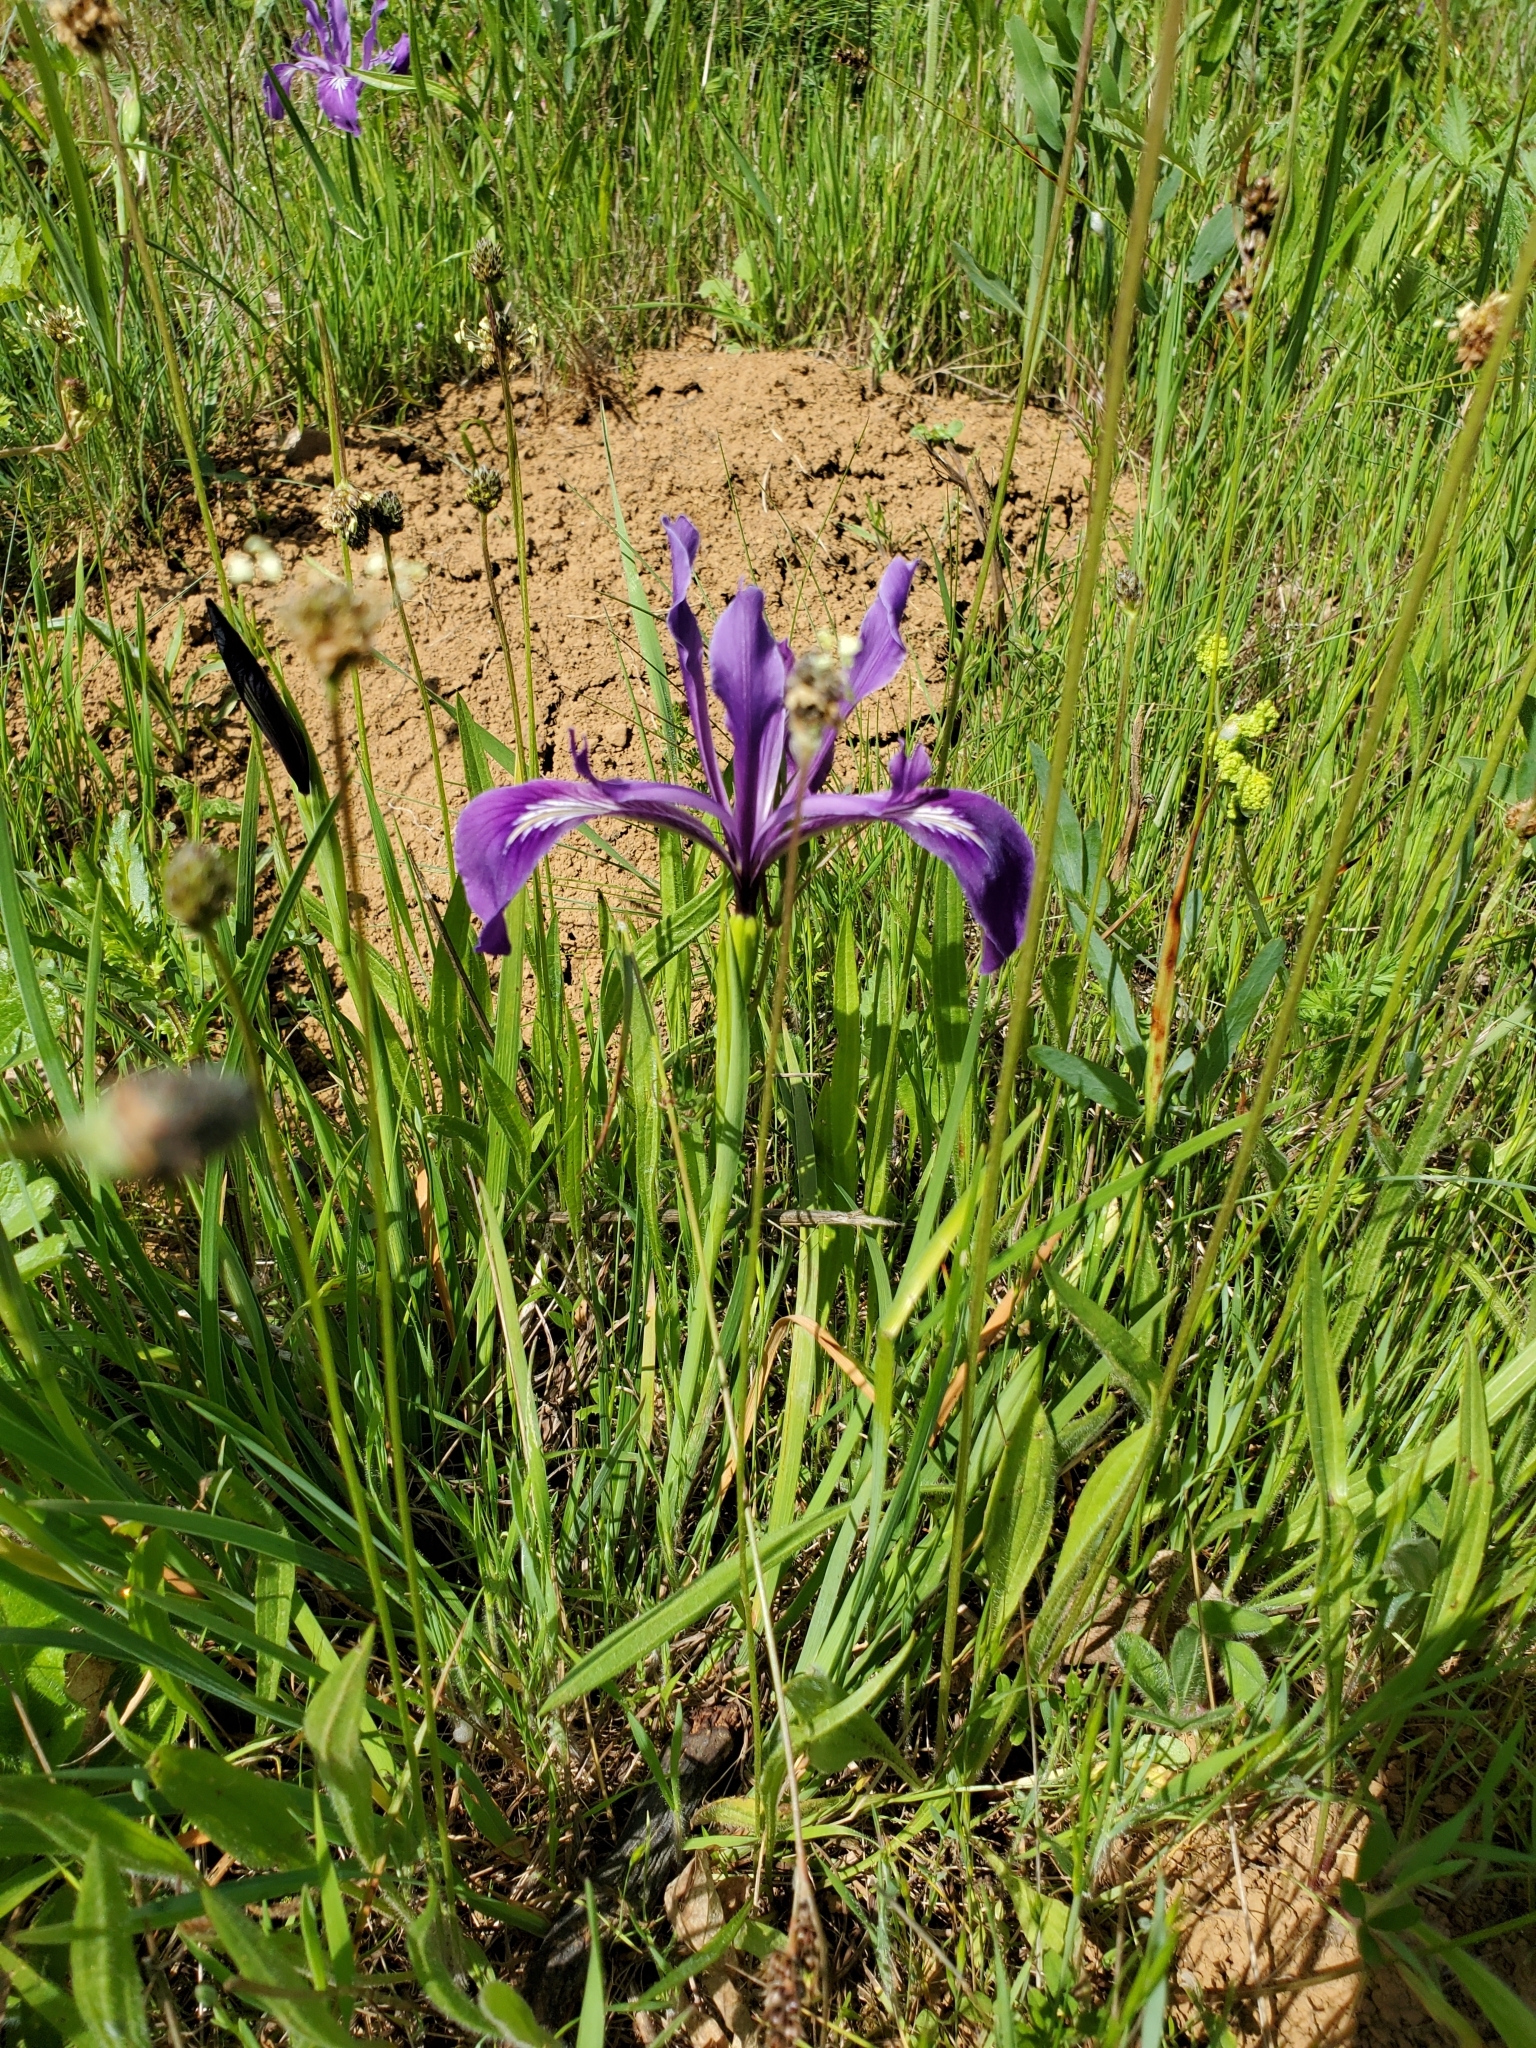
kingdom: Plantae
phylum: Tracheophyta
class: Liliopsida
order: Asparagales
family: Iridaceae
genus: Iris
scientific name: Iris tenax
